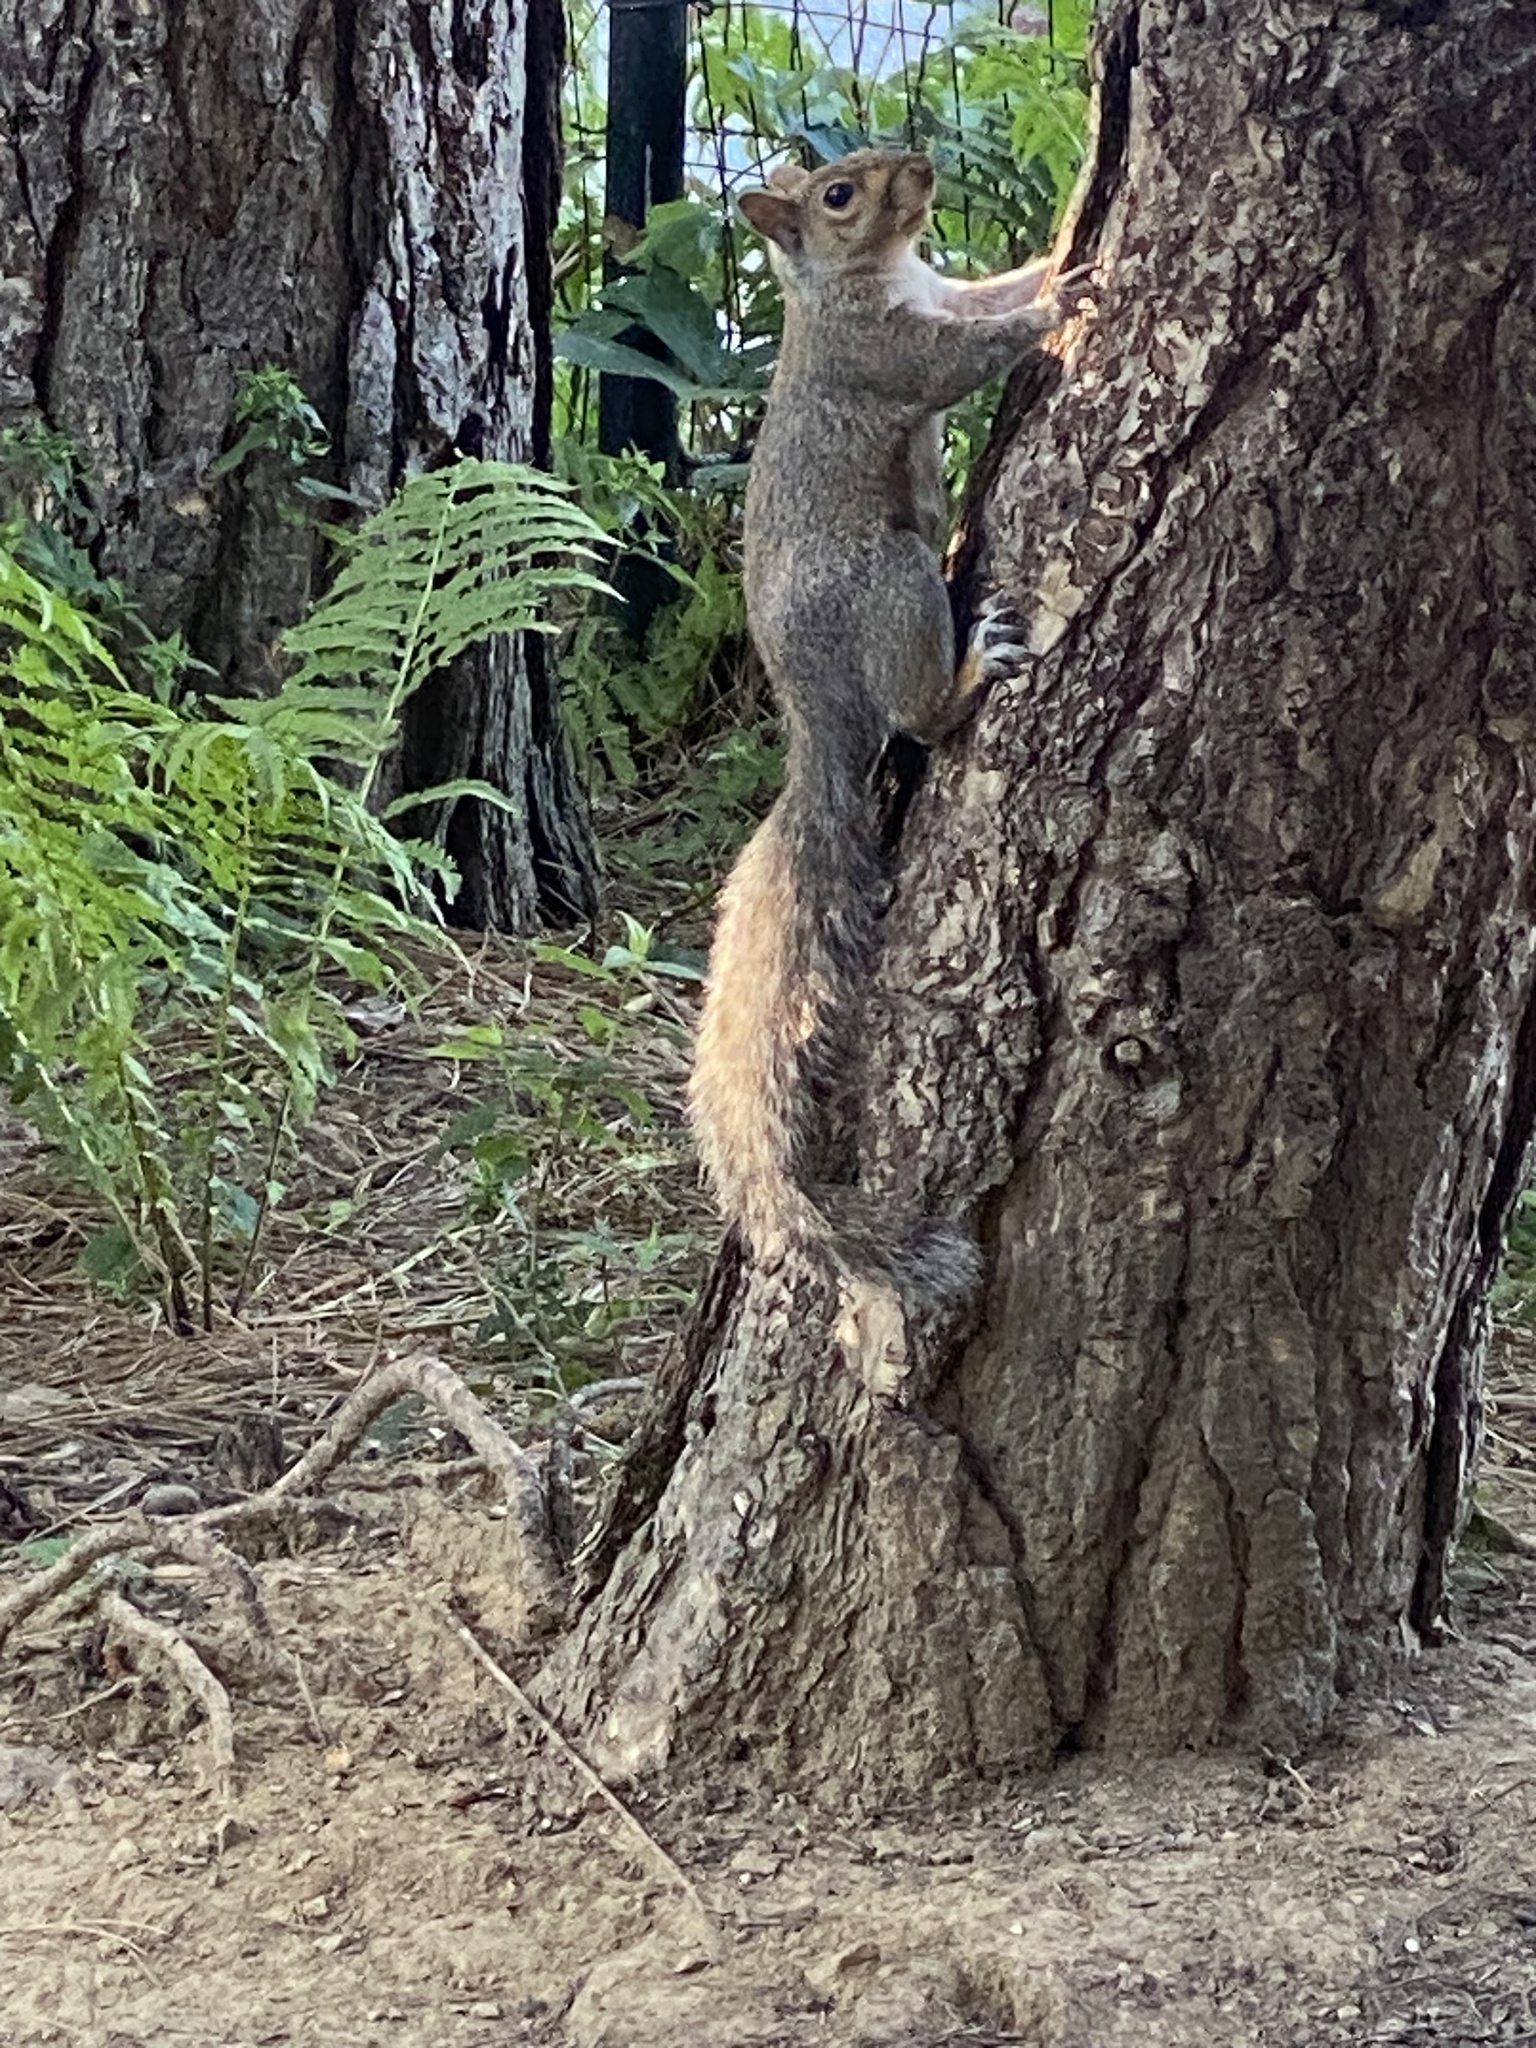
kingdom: Animalia
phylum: Chordata
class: Mammalia
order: Rodentia
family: Sciuridae
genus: Sciurus
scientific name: Sciurus carolinensis
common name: Eastern gray squirrel
